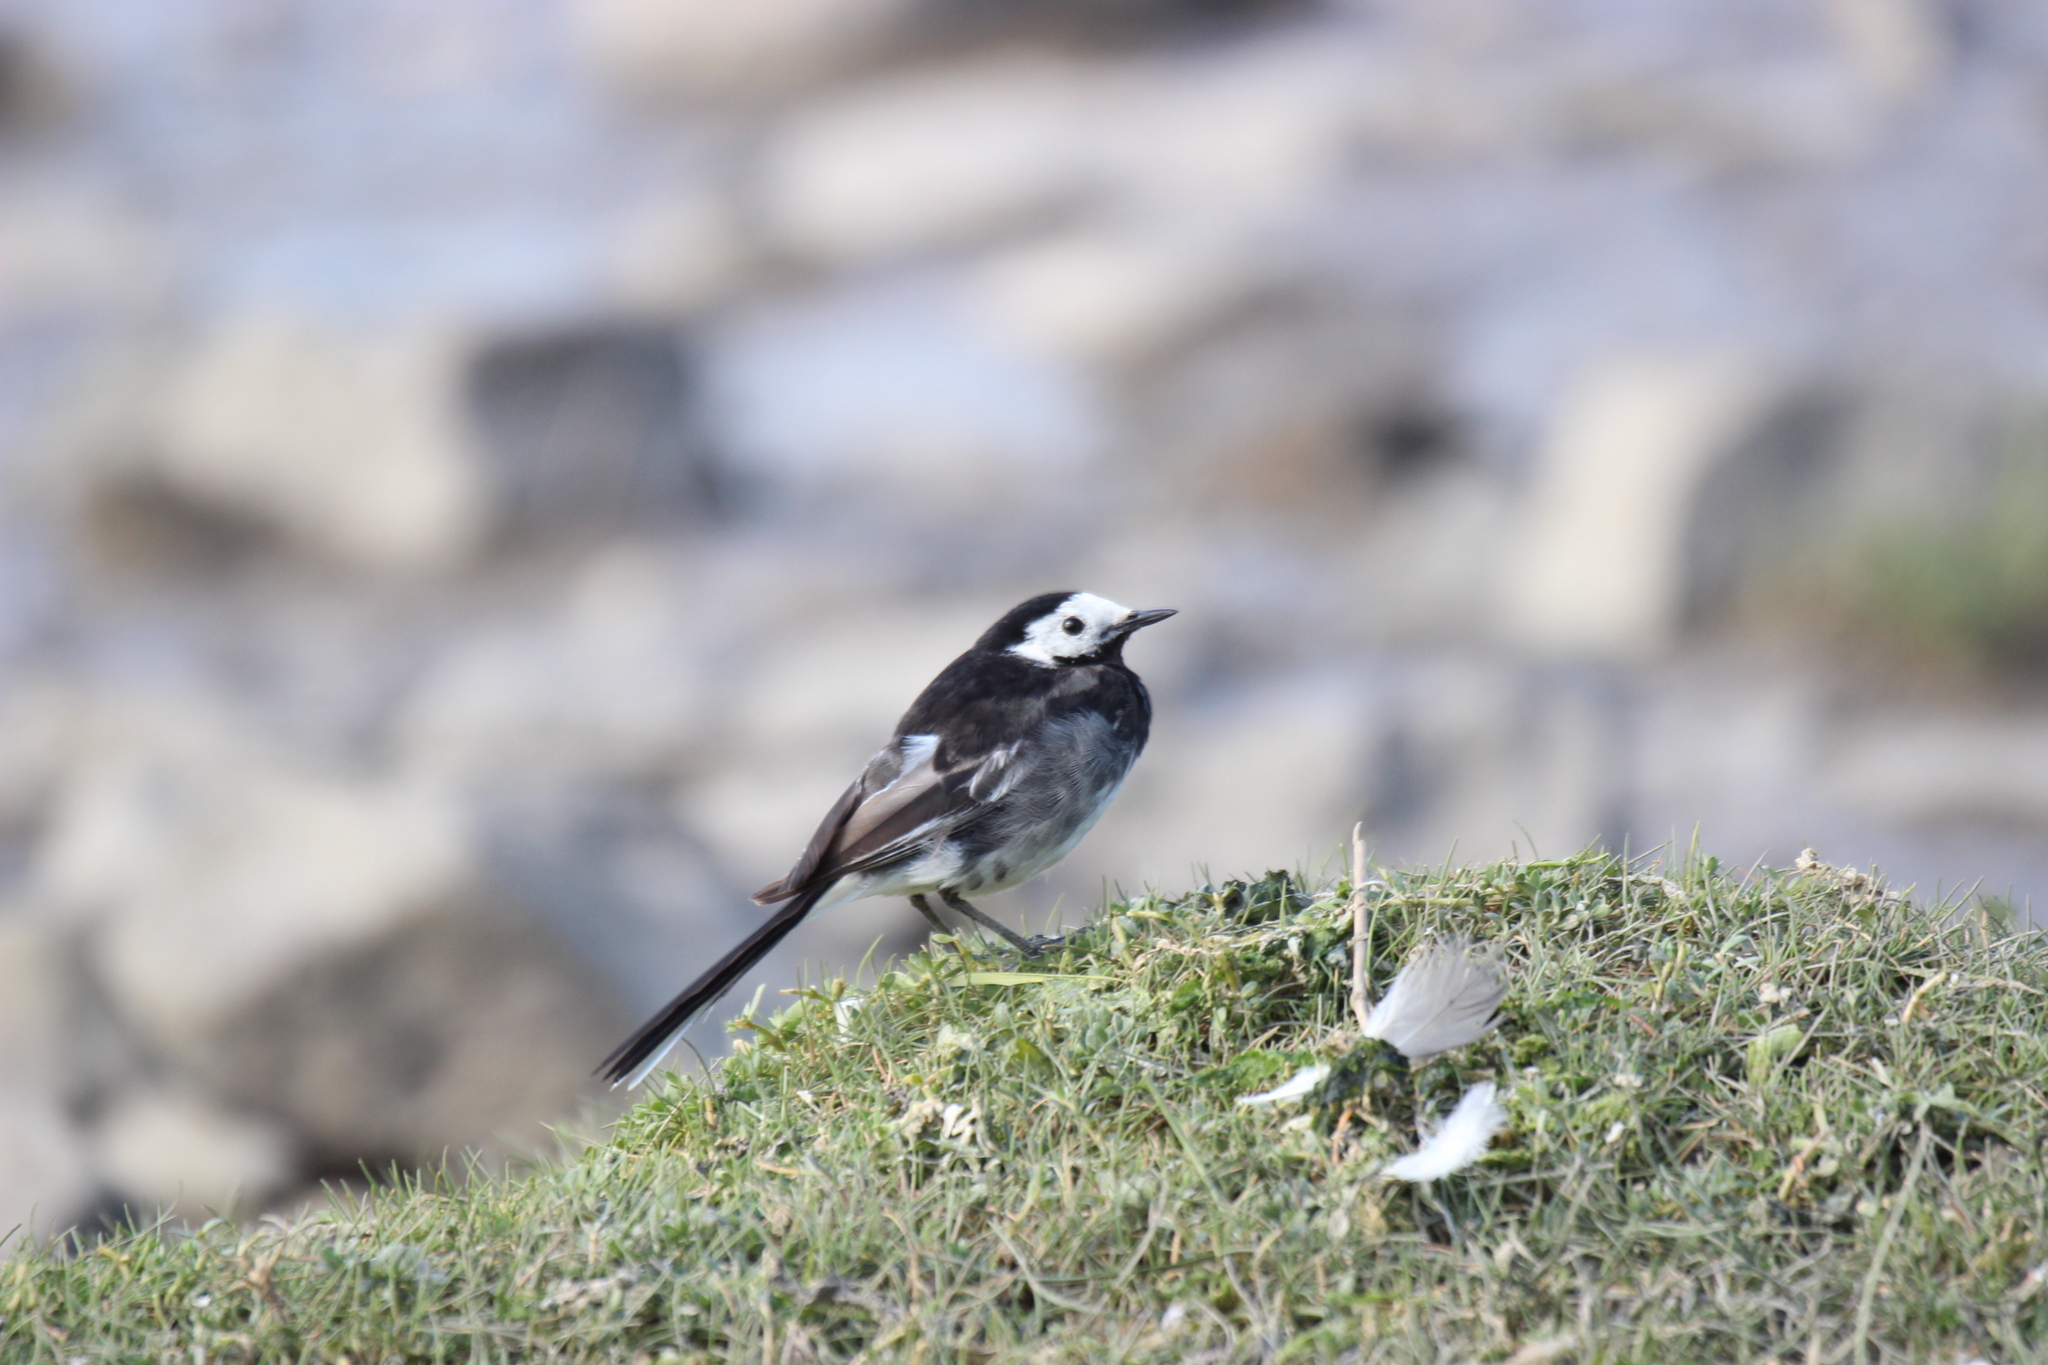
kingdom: Animalia
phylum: Chordata
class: Aves
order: Passeriformes
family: Motacillidae
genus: Motacilla
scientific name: Motacilla alba
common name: White wagtail
